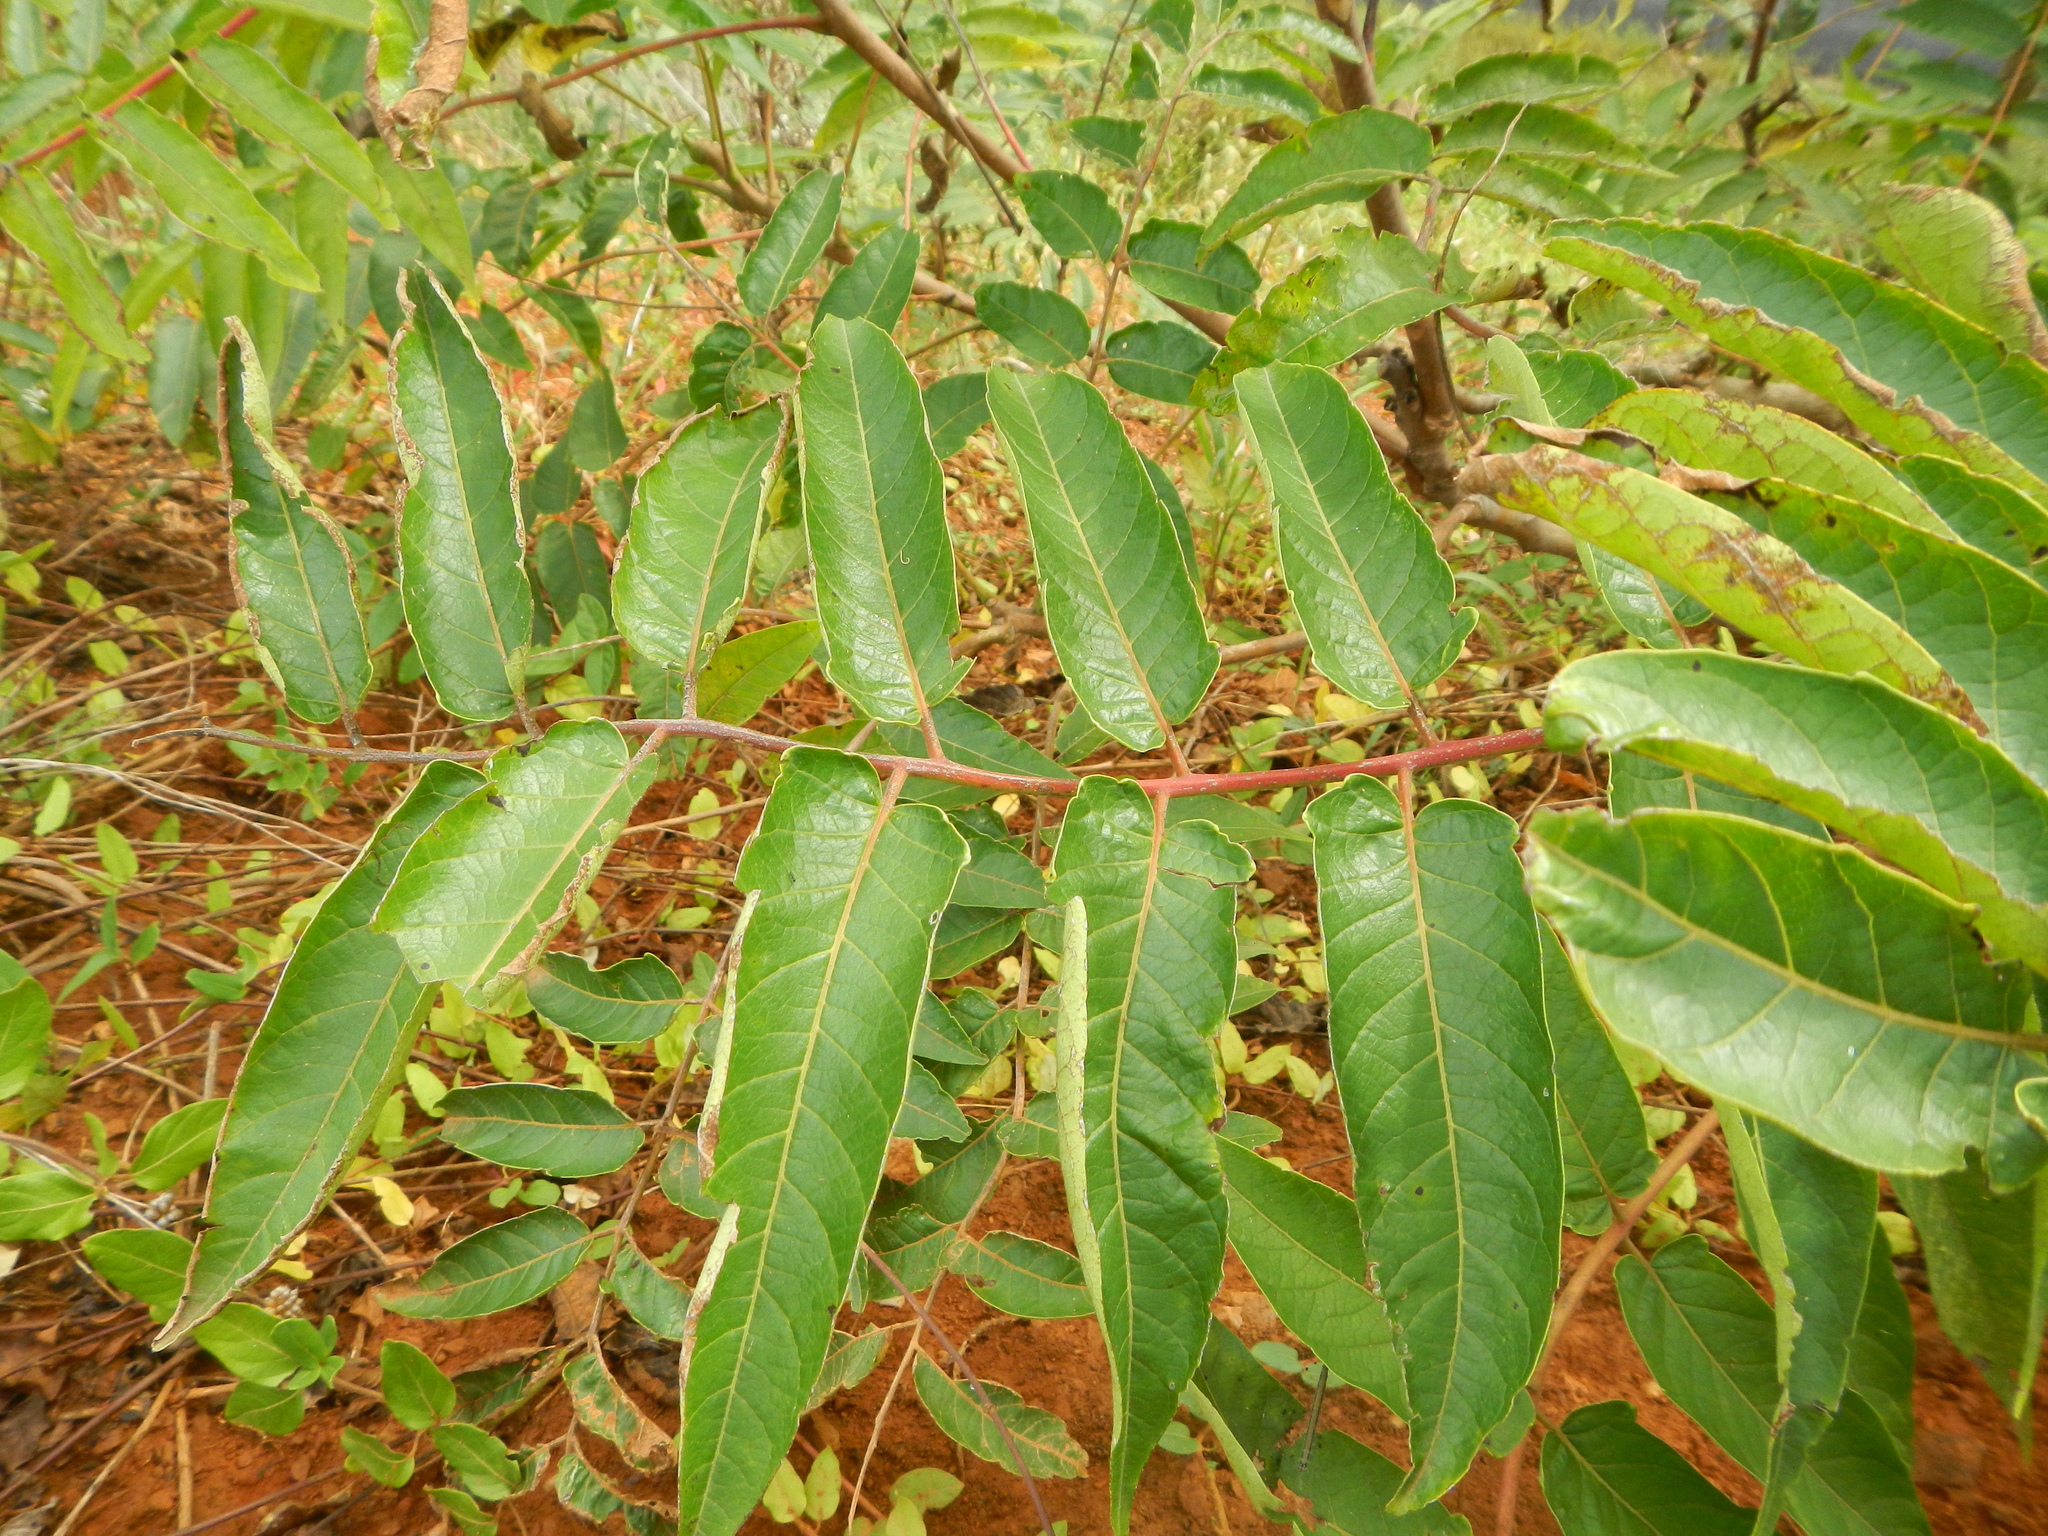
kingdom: Plantae
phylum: Tracheophyta
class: Magnoliopsida
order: Sapindales
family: Simaroubaceae
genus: Ailanthus
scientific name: Ailanthus altissima
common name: Tree-of-heaven
